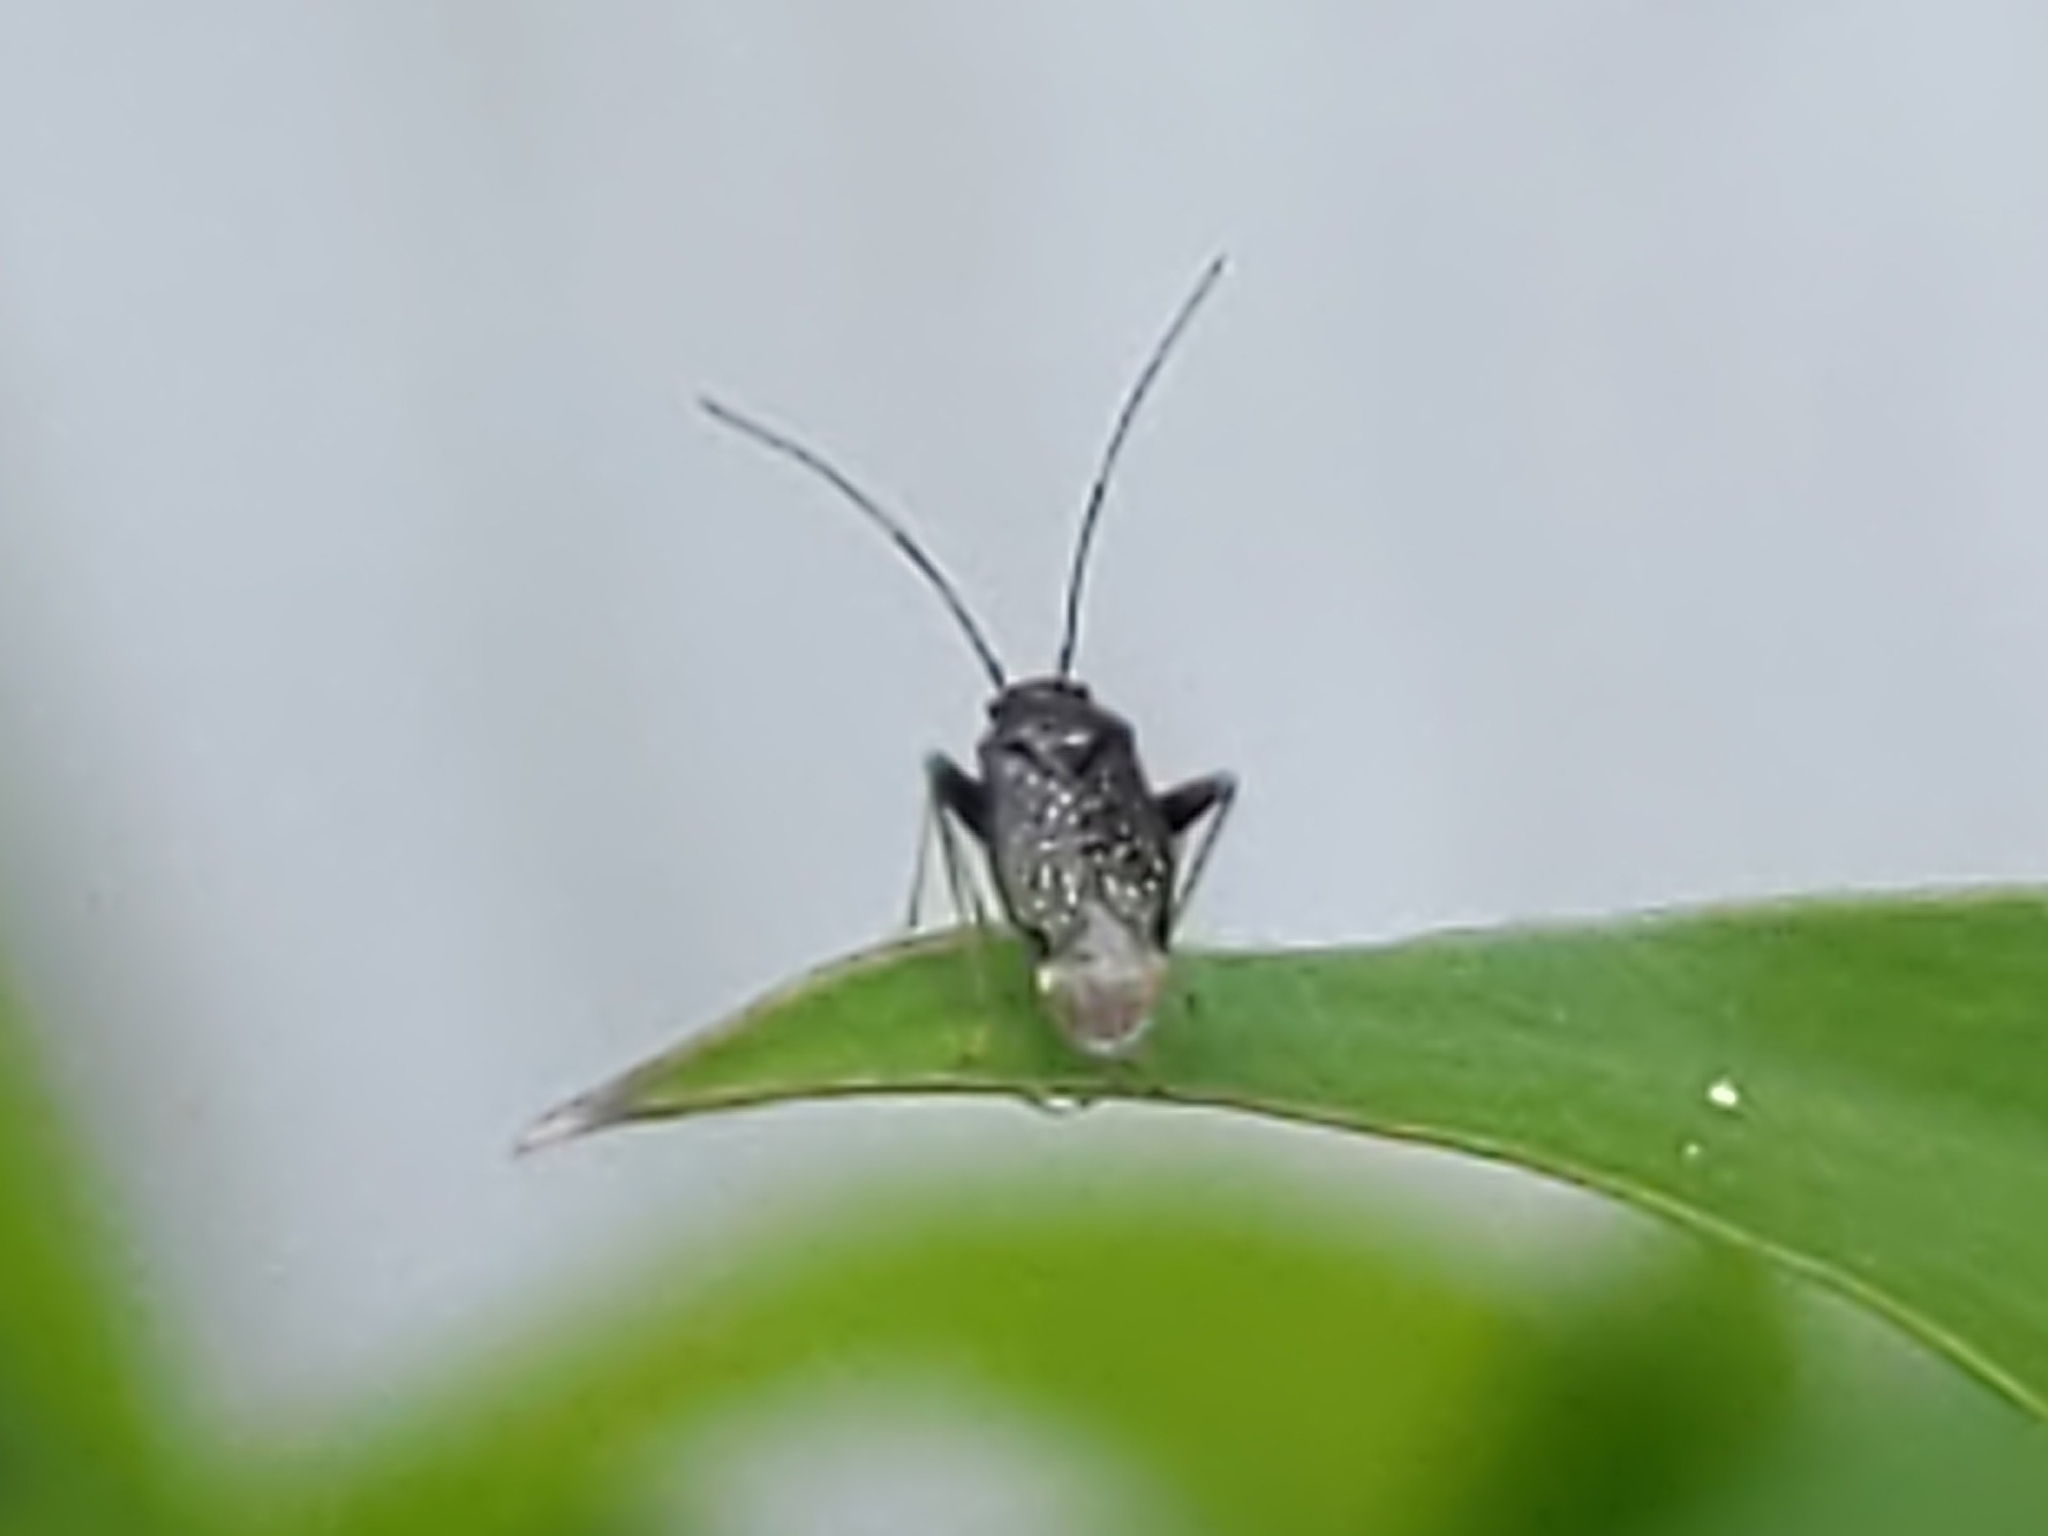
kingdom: Animalia
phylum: Arthropoda
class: Insecta
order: Hemiptera
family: Miridae
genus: Microtechnites
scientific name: Microtechnites bractatus
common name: Garden fleahopper
